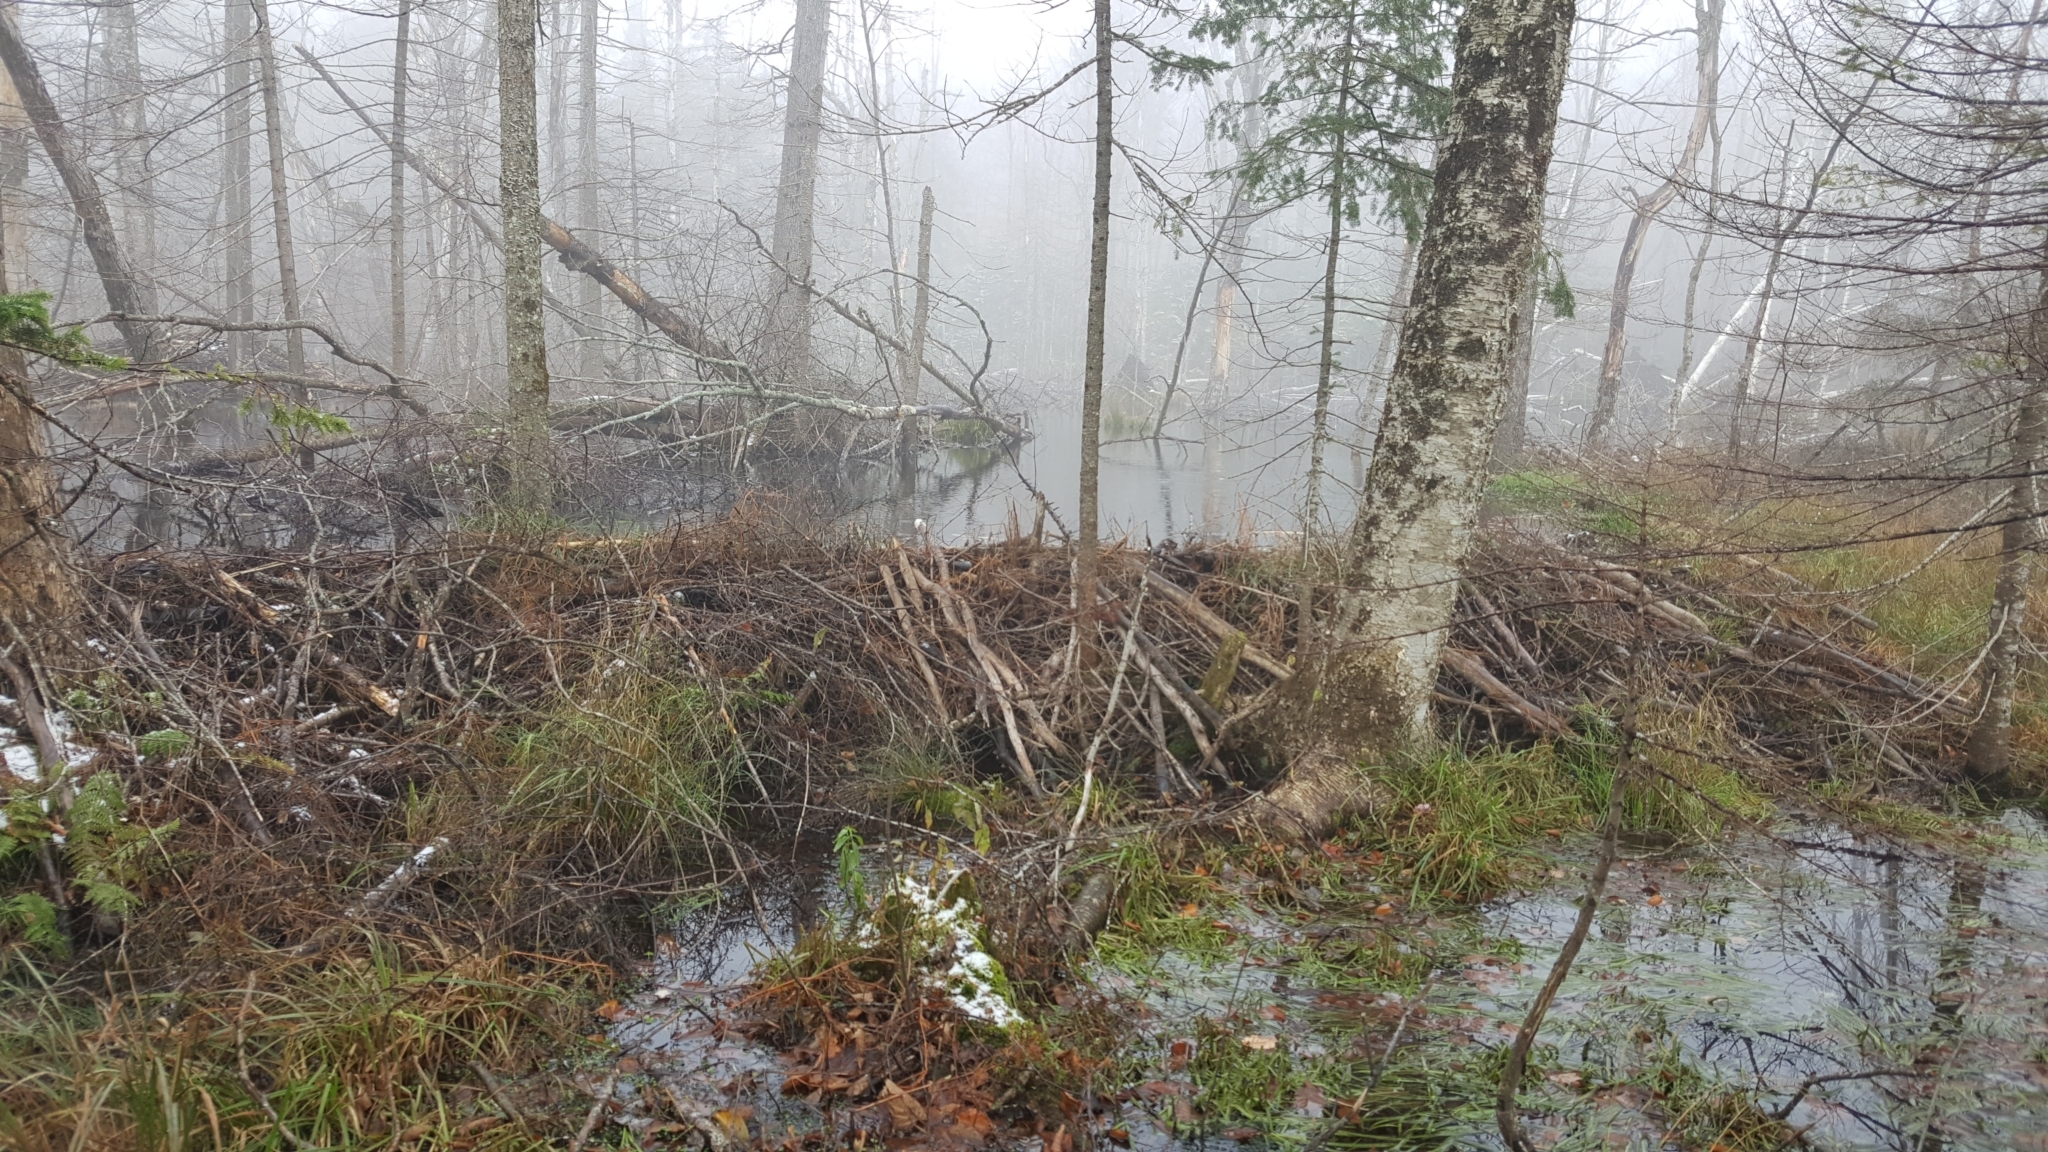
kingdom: Animalia
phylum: Chordata
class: Mammalia
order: Rodentia
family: Castoridae
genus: Castor
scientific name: Castor canadensis
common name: American beaver
